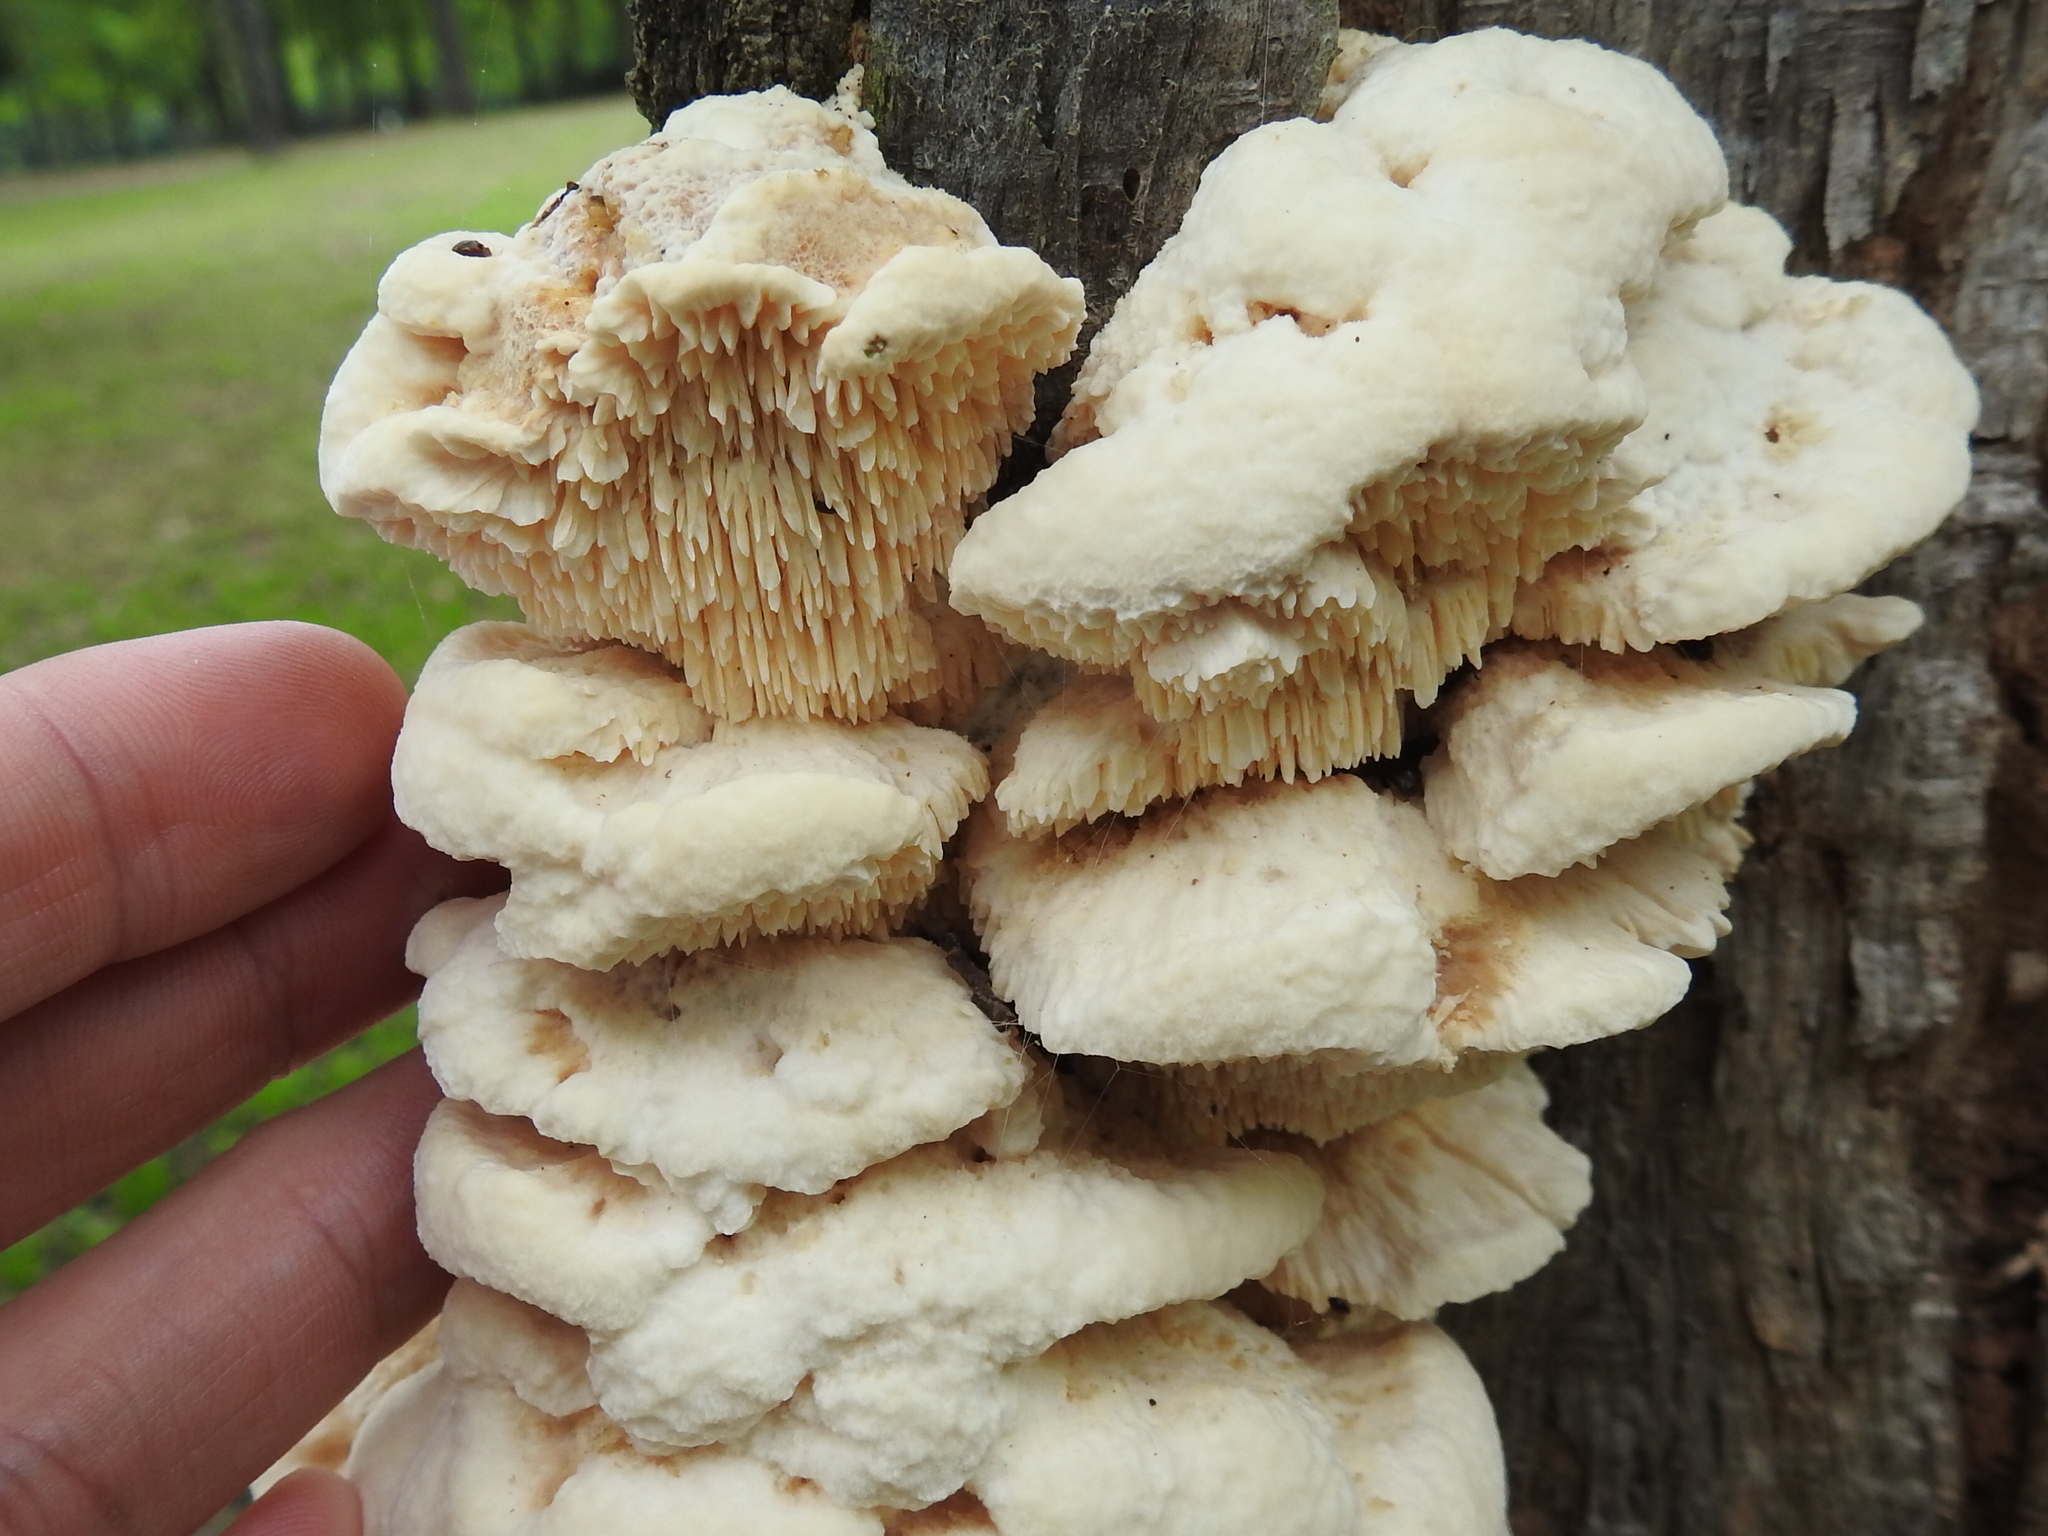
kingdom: Fungi
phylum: Basidiomycota
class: Agaricomycetes
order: Polyporales
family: Meruliaceae
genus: Irpiciporus
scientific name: Irpiciporus pachyodon
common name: Marshmallow polypore
